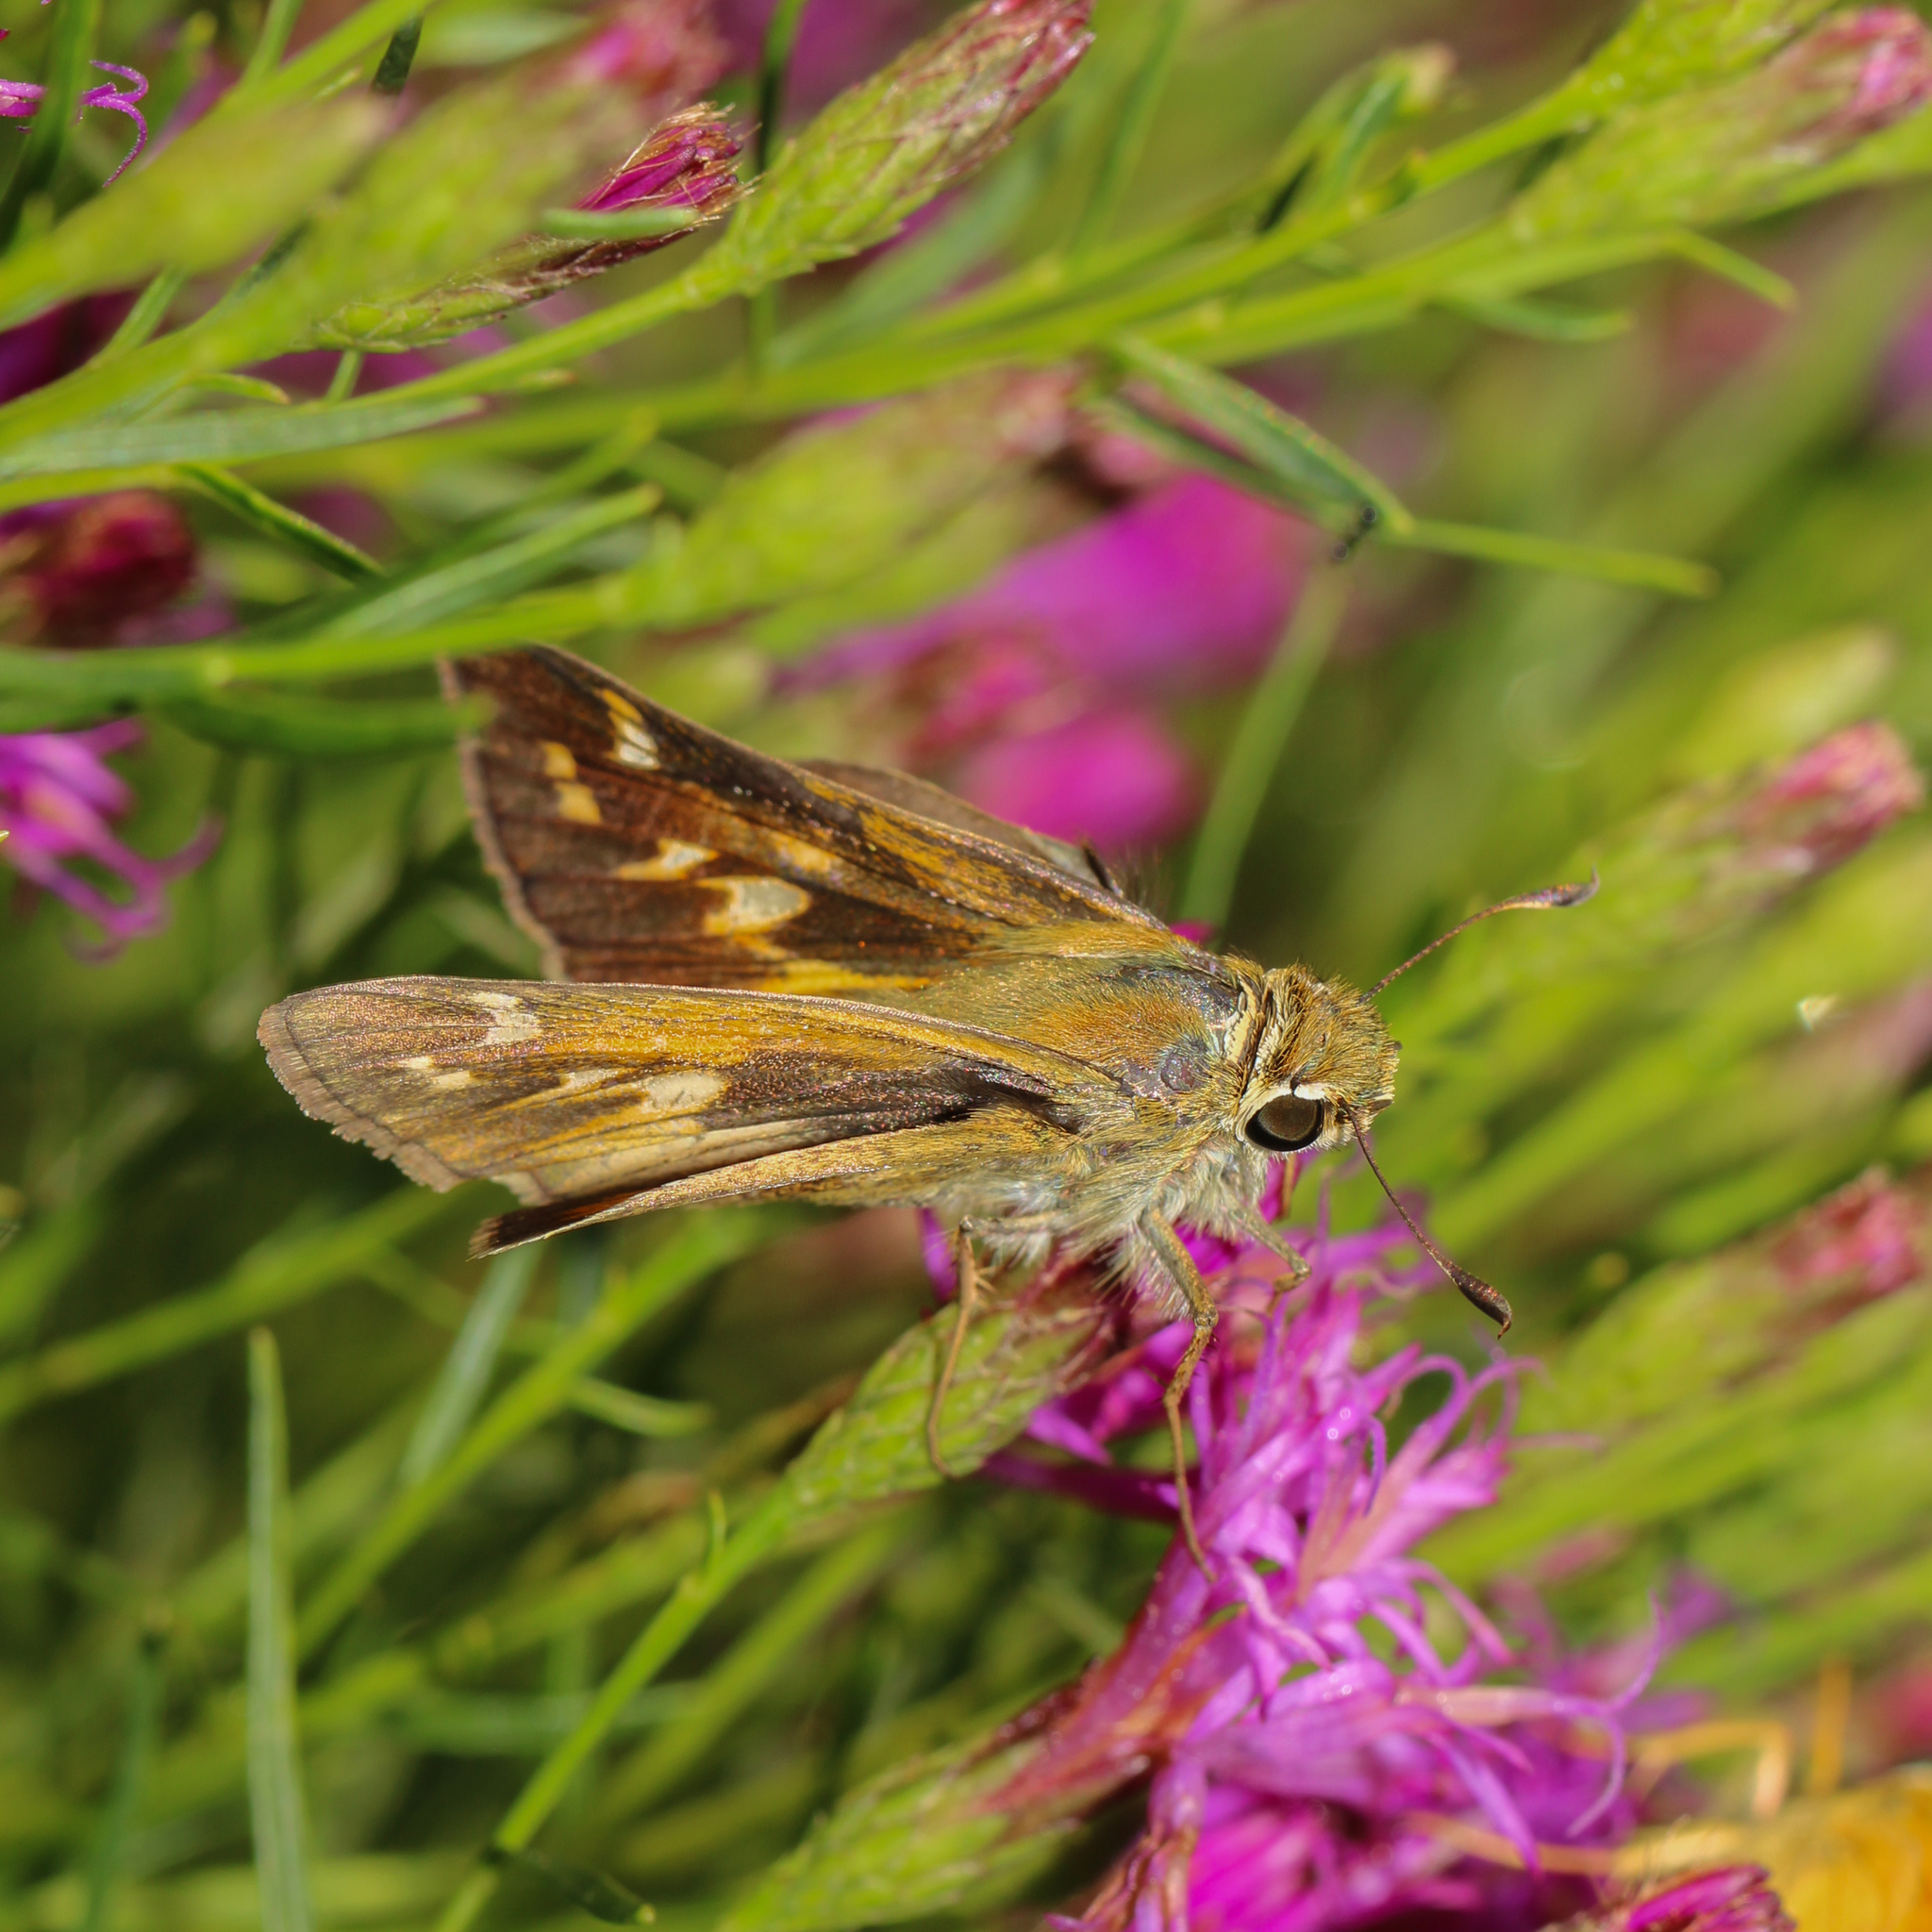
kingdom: Animalia
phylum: Arthropoda
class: Insecta
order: Lepidoptera
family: Hesperiidae
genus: Atalopedes
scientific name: Atalopedes
